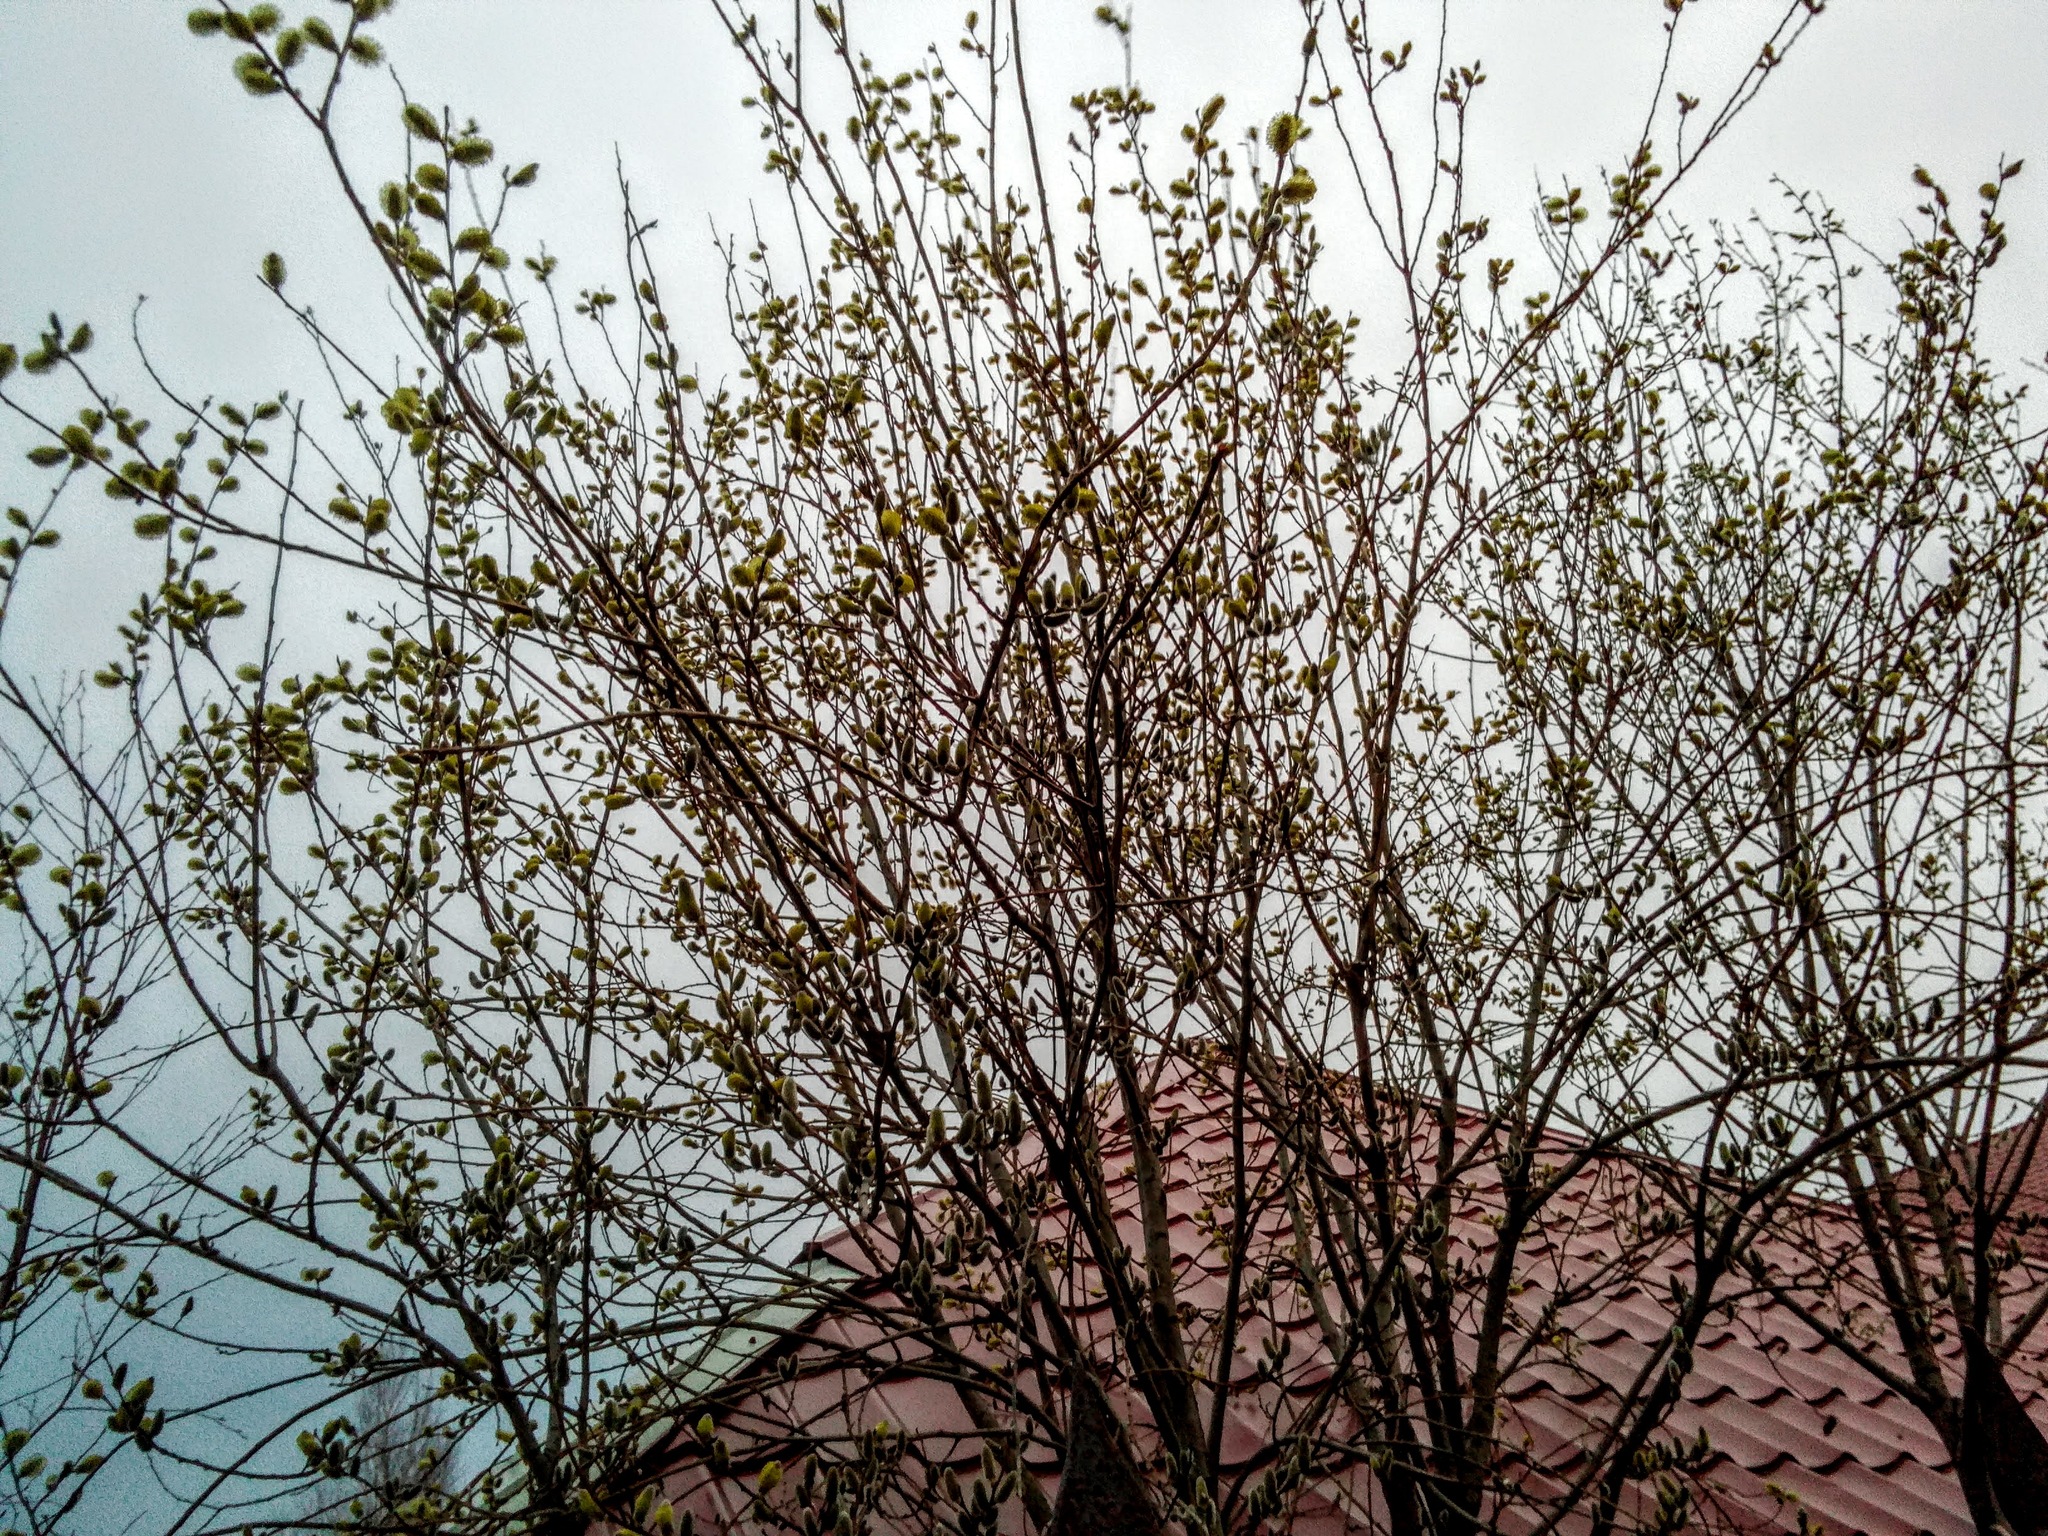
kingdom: Plantae
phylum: Tracheophyta
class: Magnoliopsida
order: Malpighiales
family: Salicaceae
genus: Salix
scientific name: Salix caprea
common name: Goat willow
